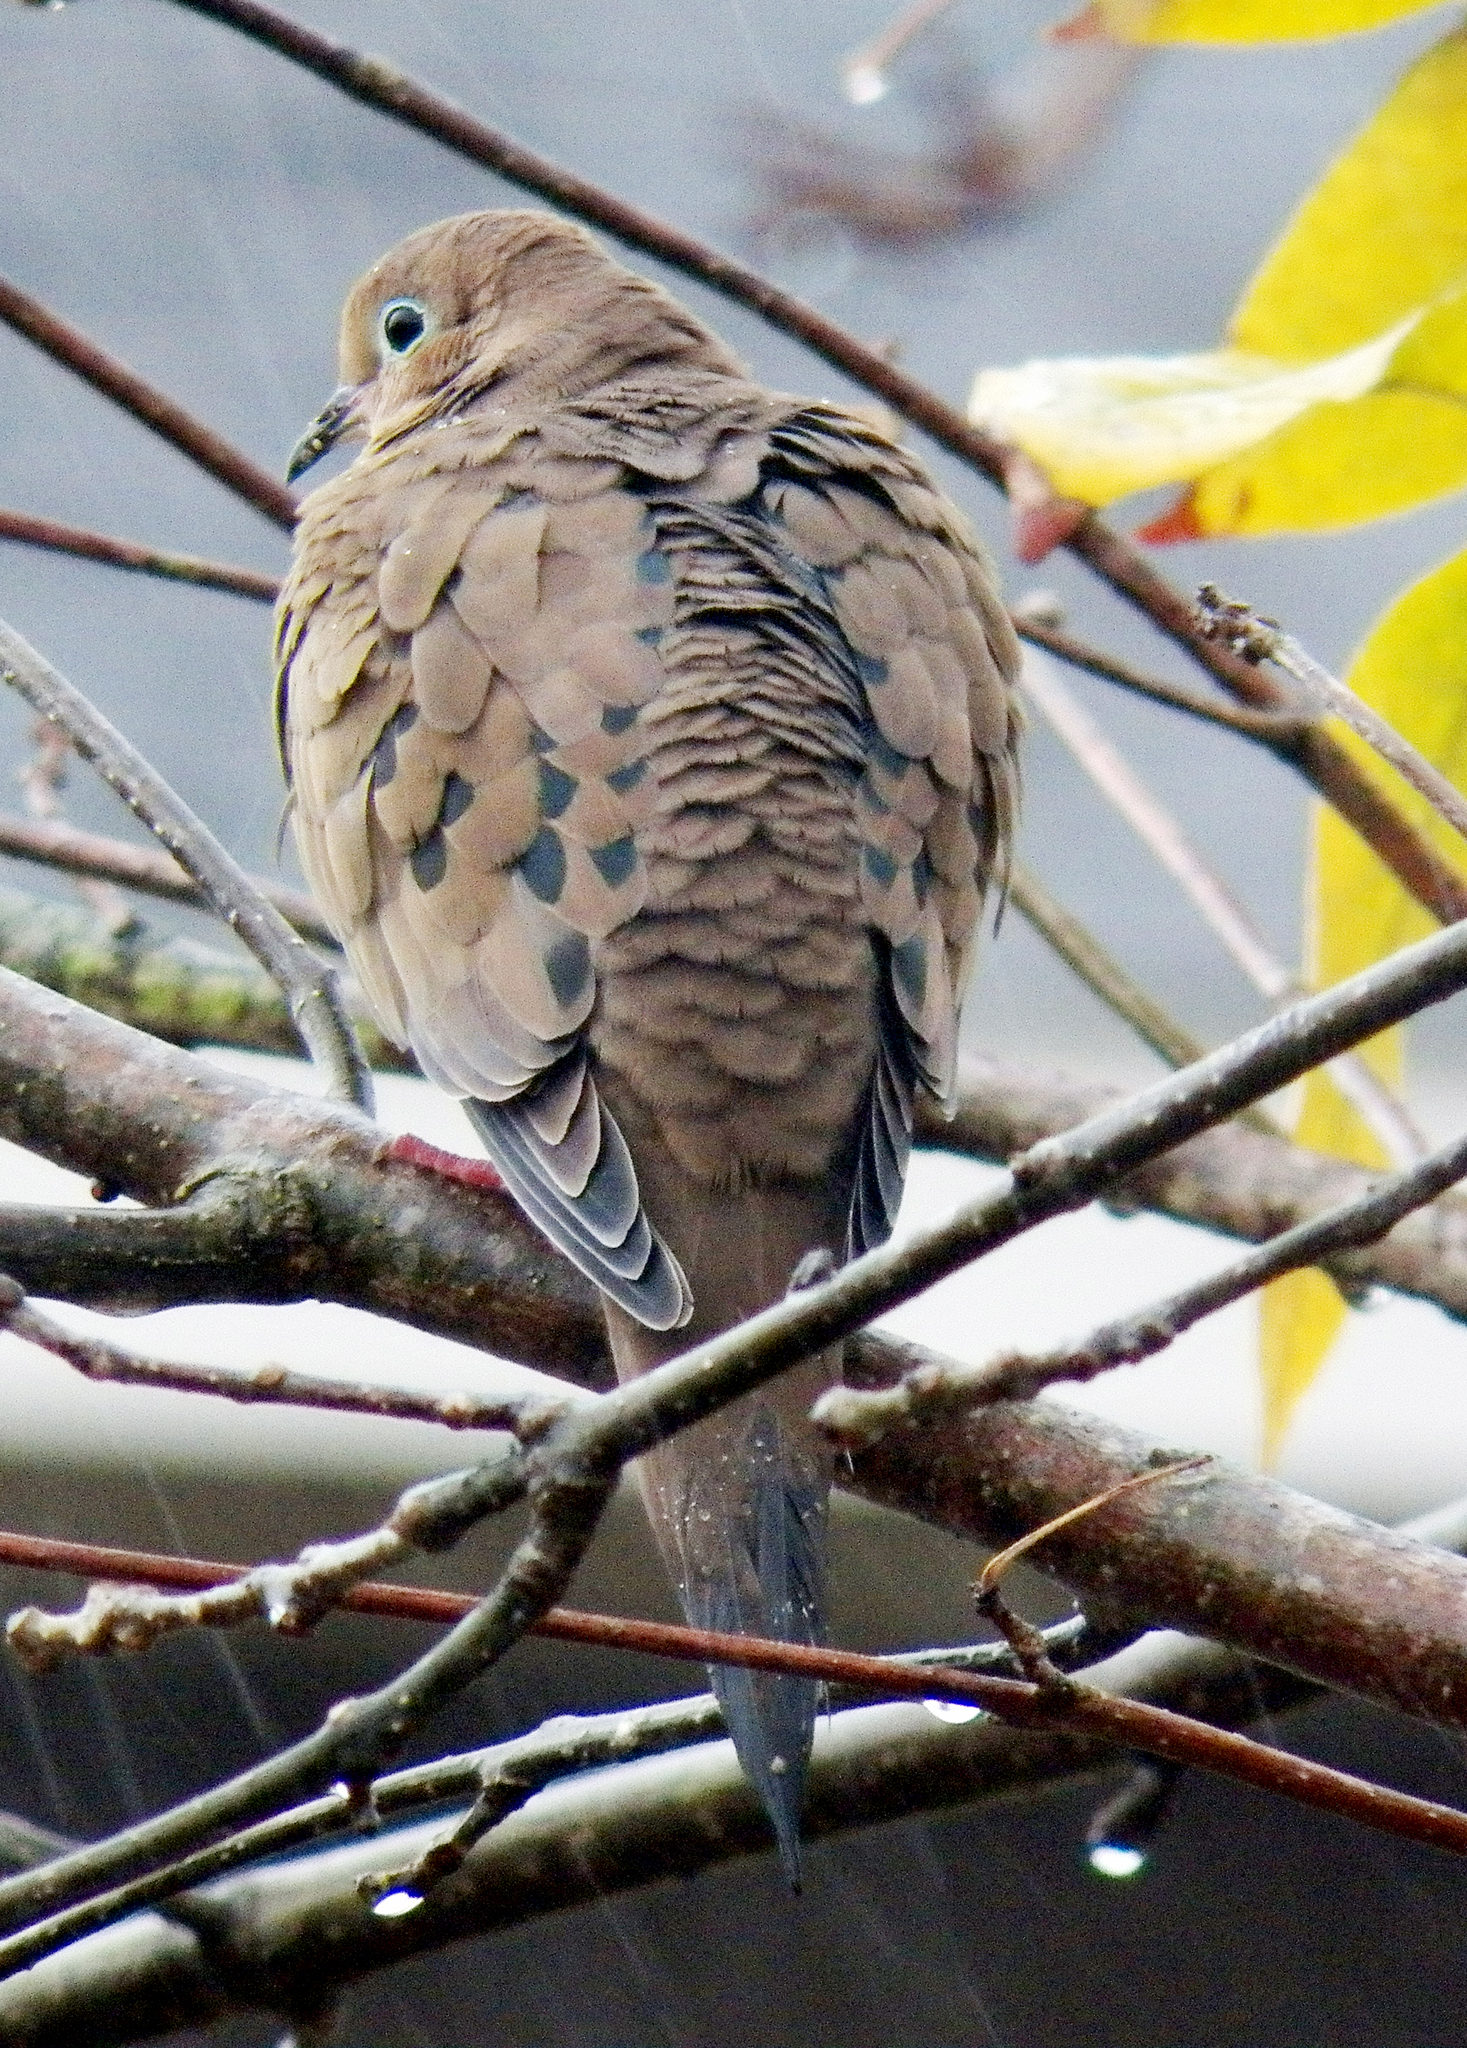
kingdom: Animalia
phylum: Chordata
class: Aves
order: Columbiformes
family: Columbidae
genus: Zenaida
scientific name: Zenaida macroura
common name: Mourning dove
